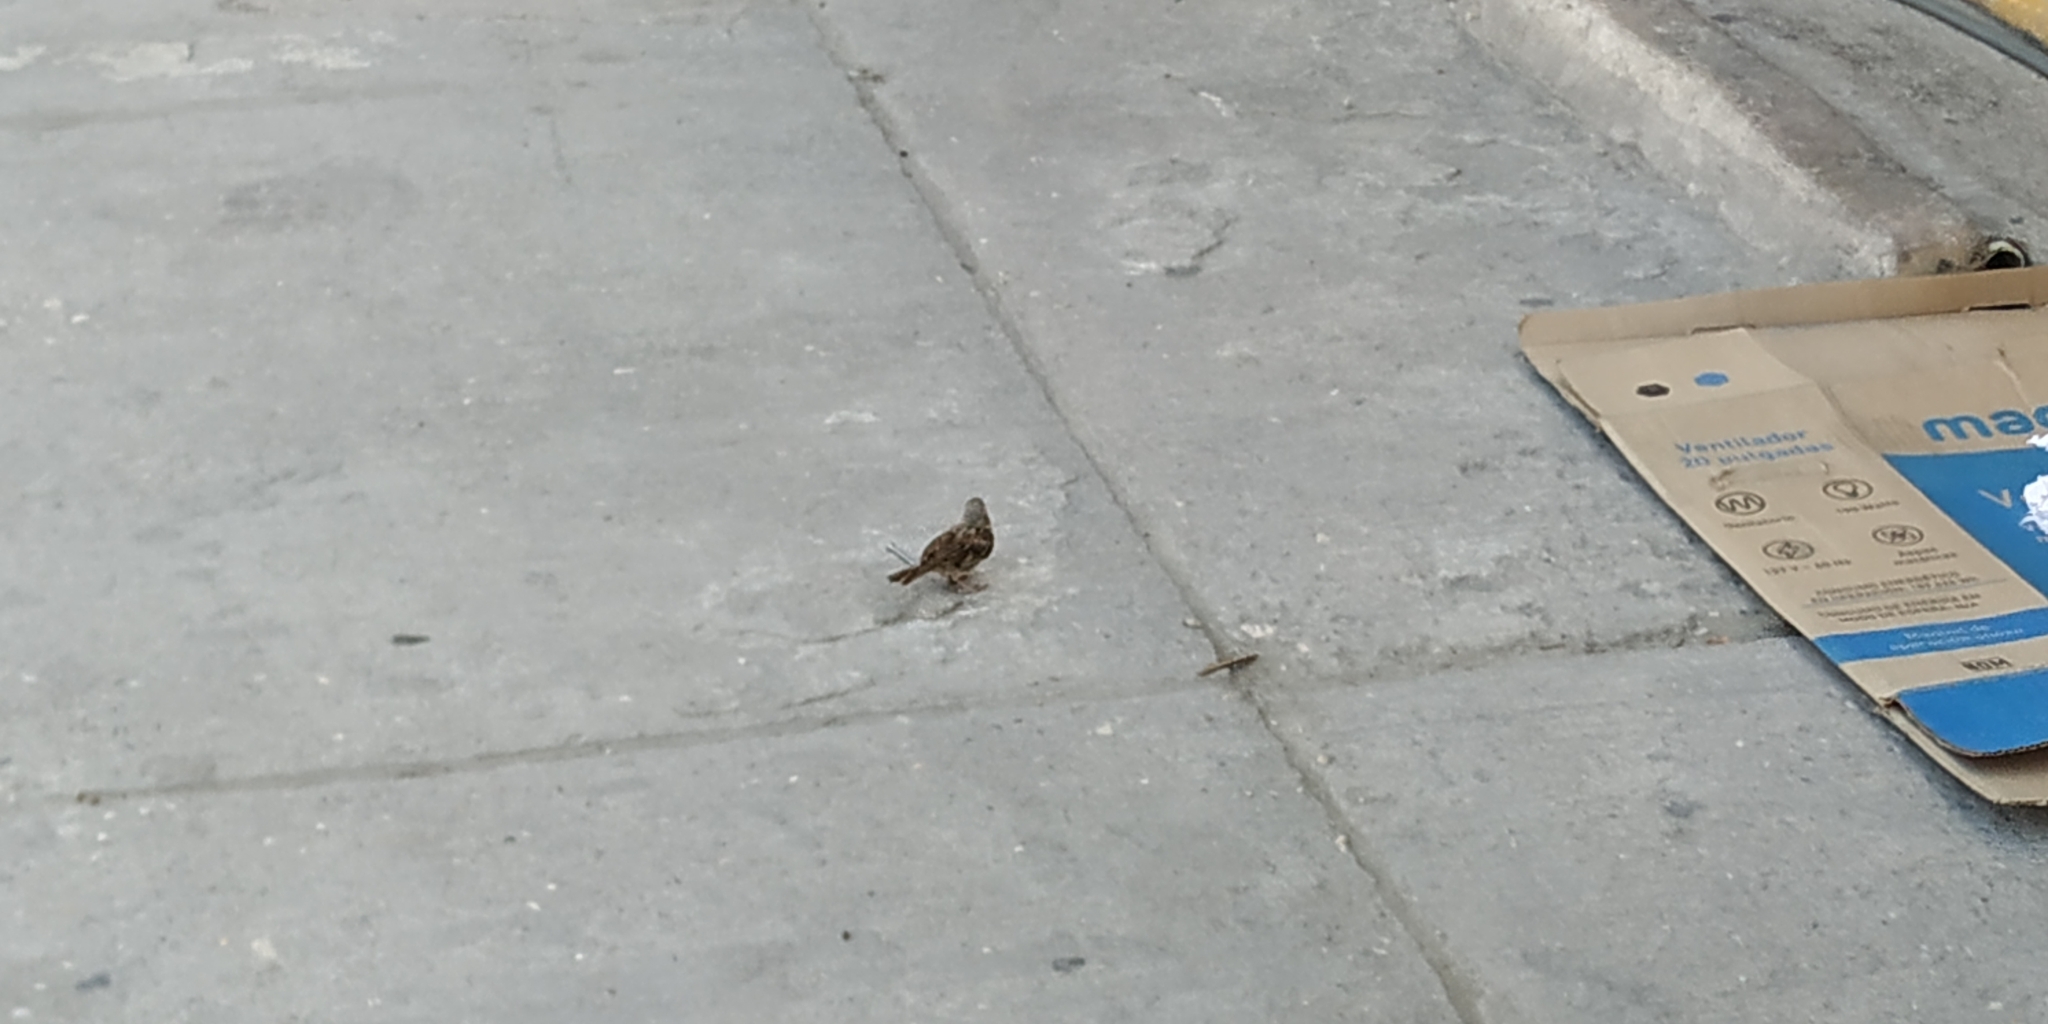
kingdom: Animalia
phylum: Chordata
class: Aves
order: Passeriformes
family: Passeridae
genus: Passer
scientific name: Passer domesticus
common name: House sparrow
